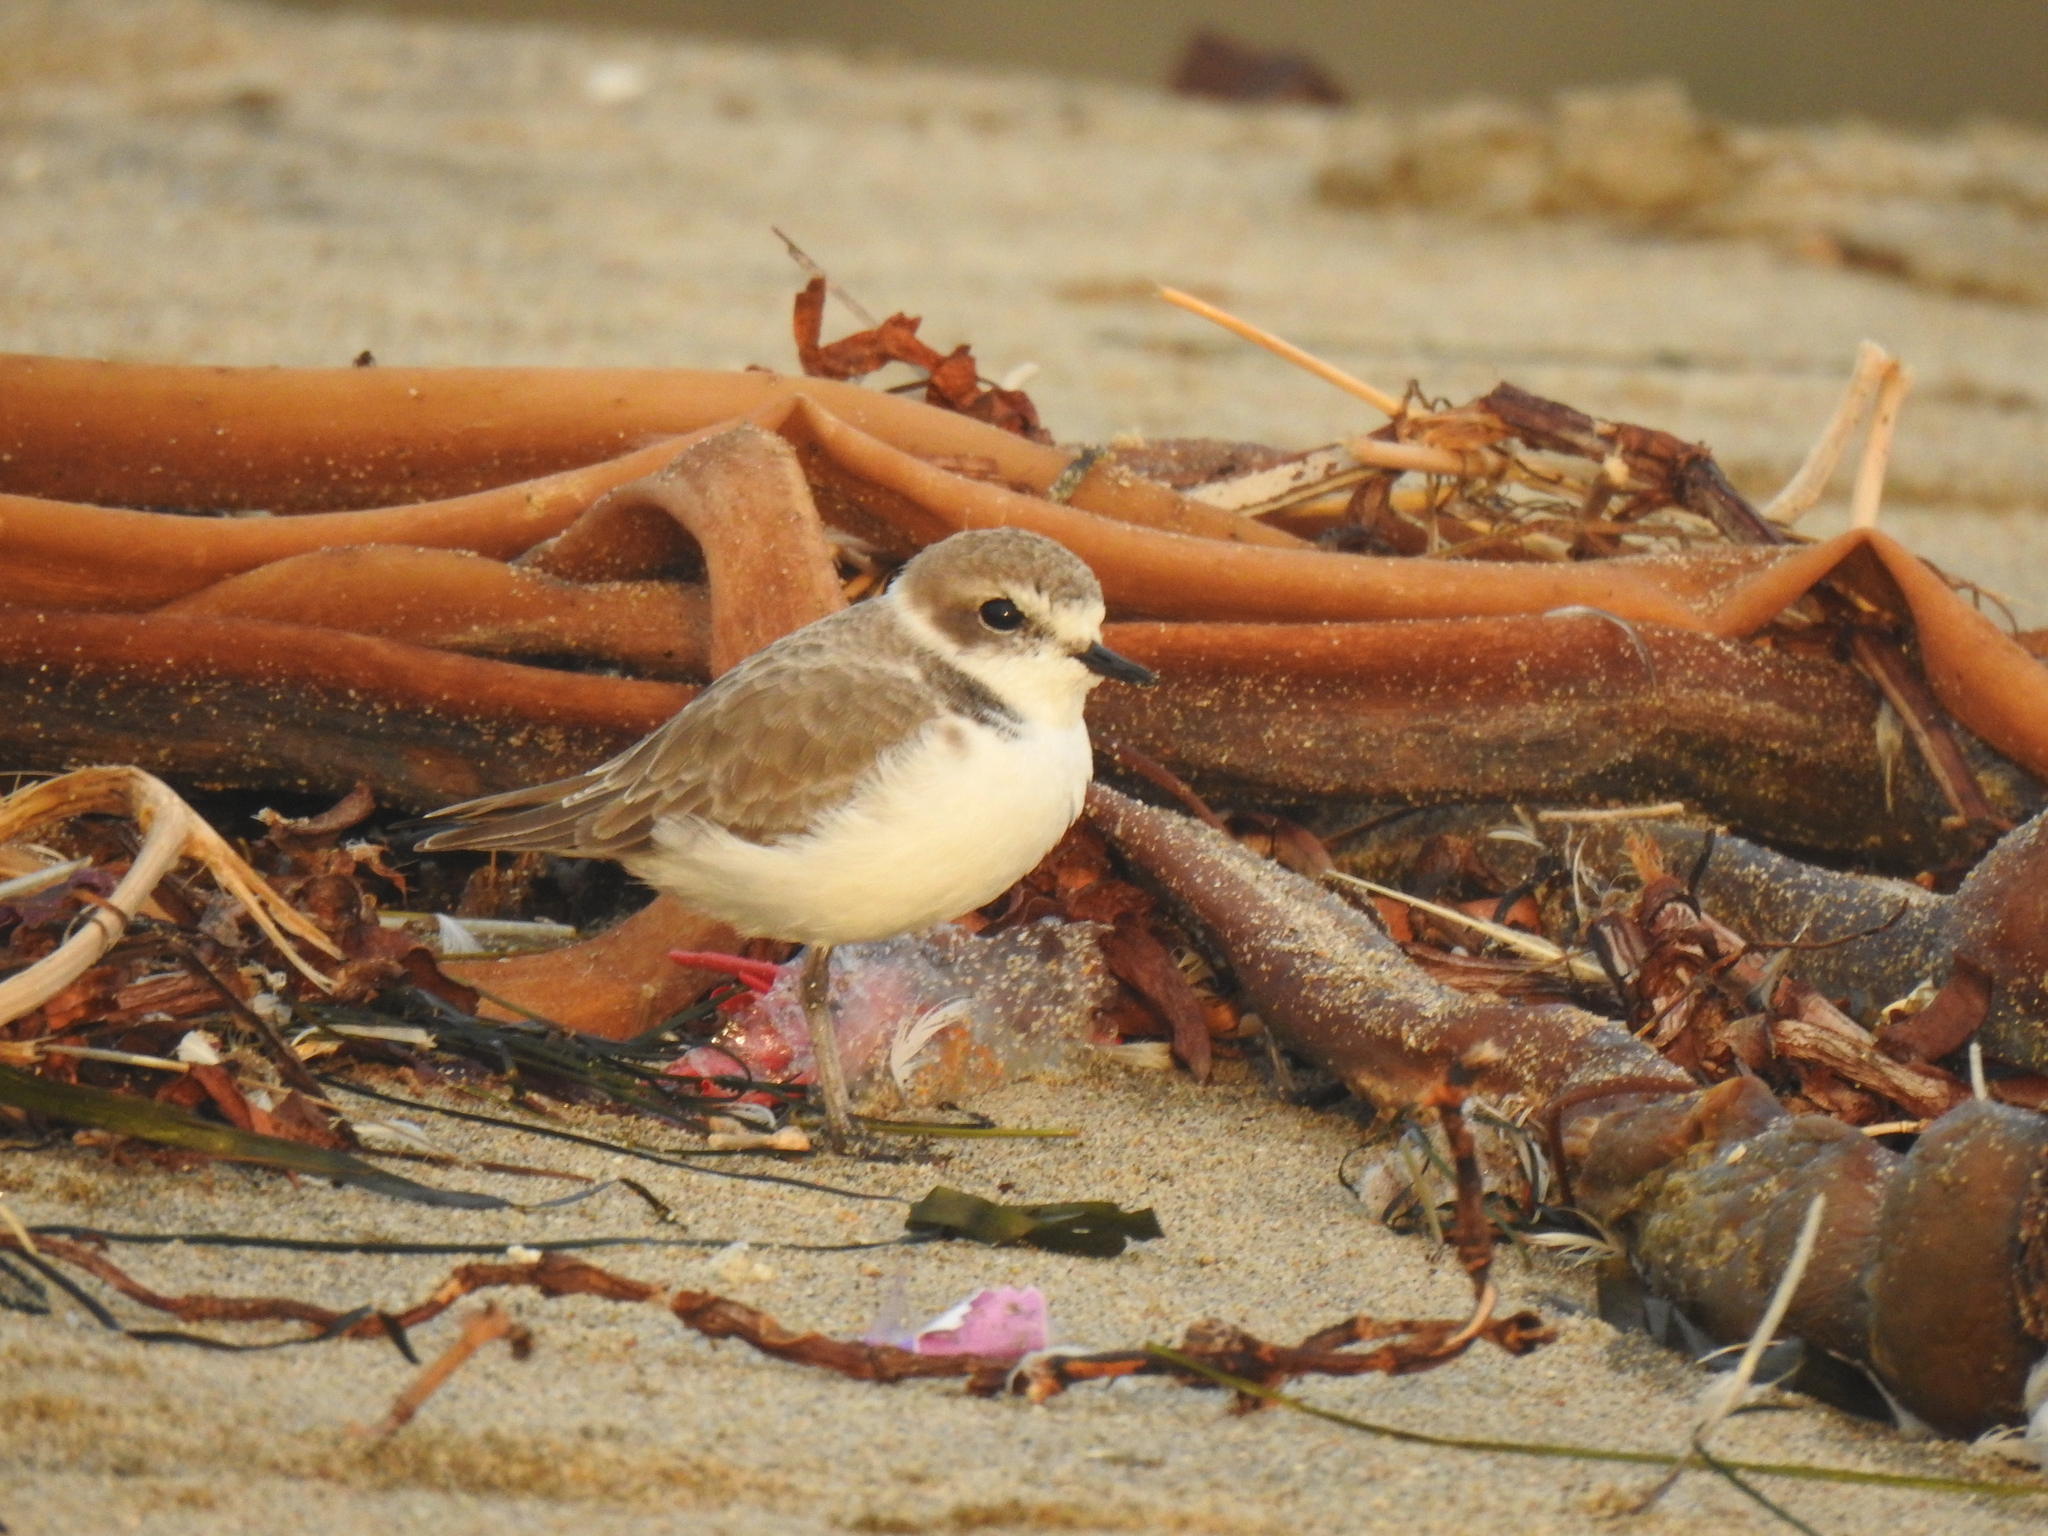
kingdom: Animalia
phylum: Chordata
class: Aves
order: Charadriiformes
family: Charadriidae
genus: Anarhynchus
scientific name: Anarhynchus
